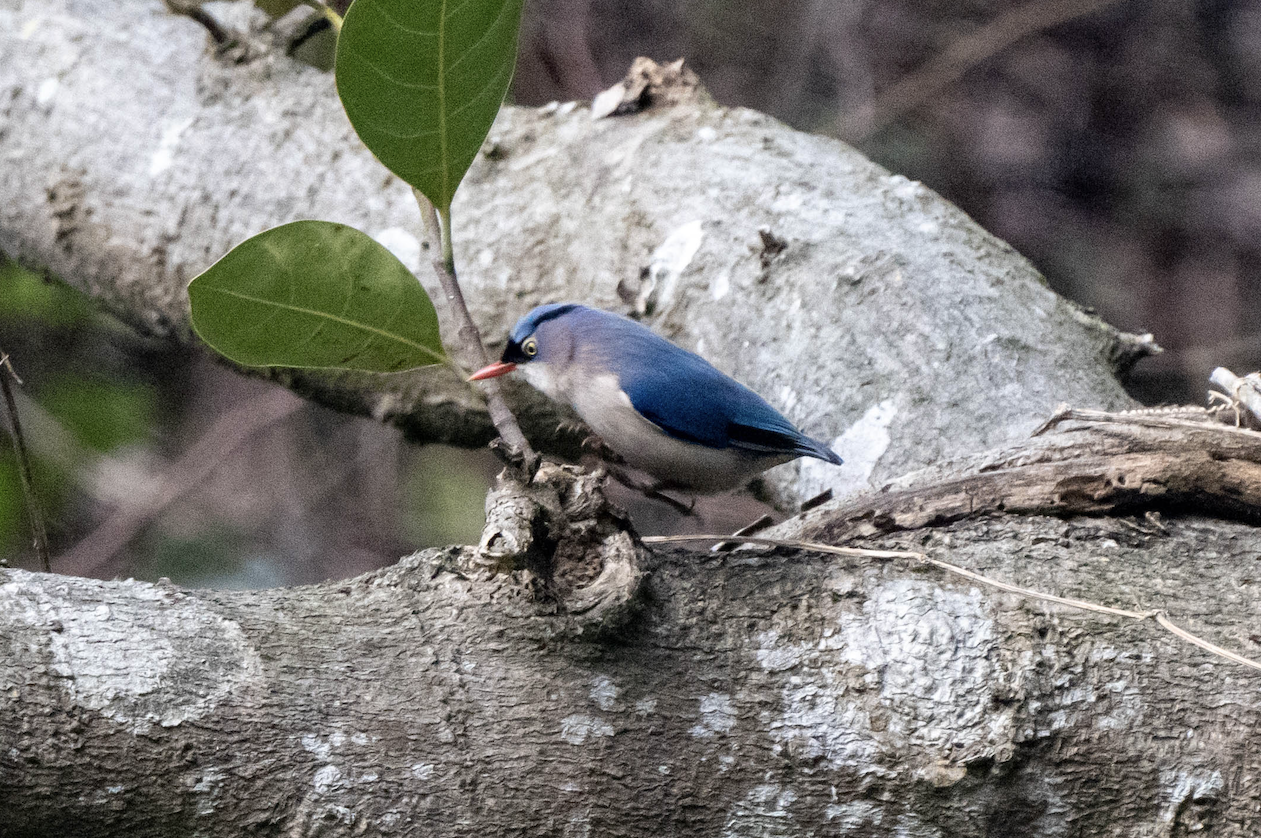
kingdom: Animalia
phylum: Chordata
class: Aves
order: Passeriformes
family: Sittidae
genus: Sitta
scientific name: Sitta frontalis
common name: Velvet-fronted nuthatch
